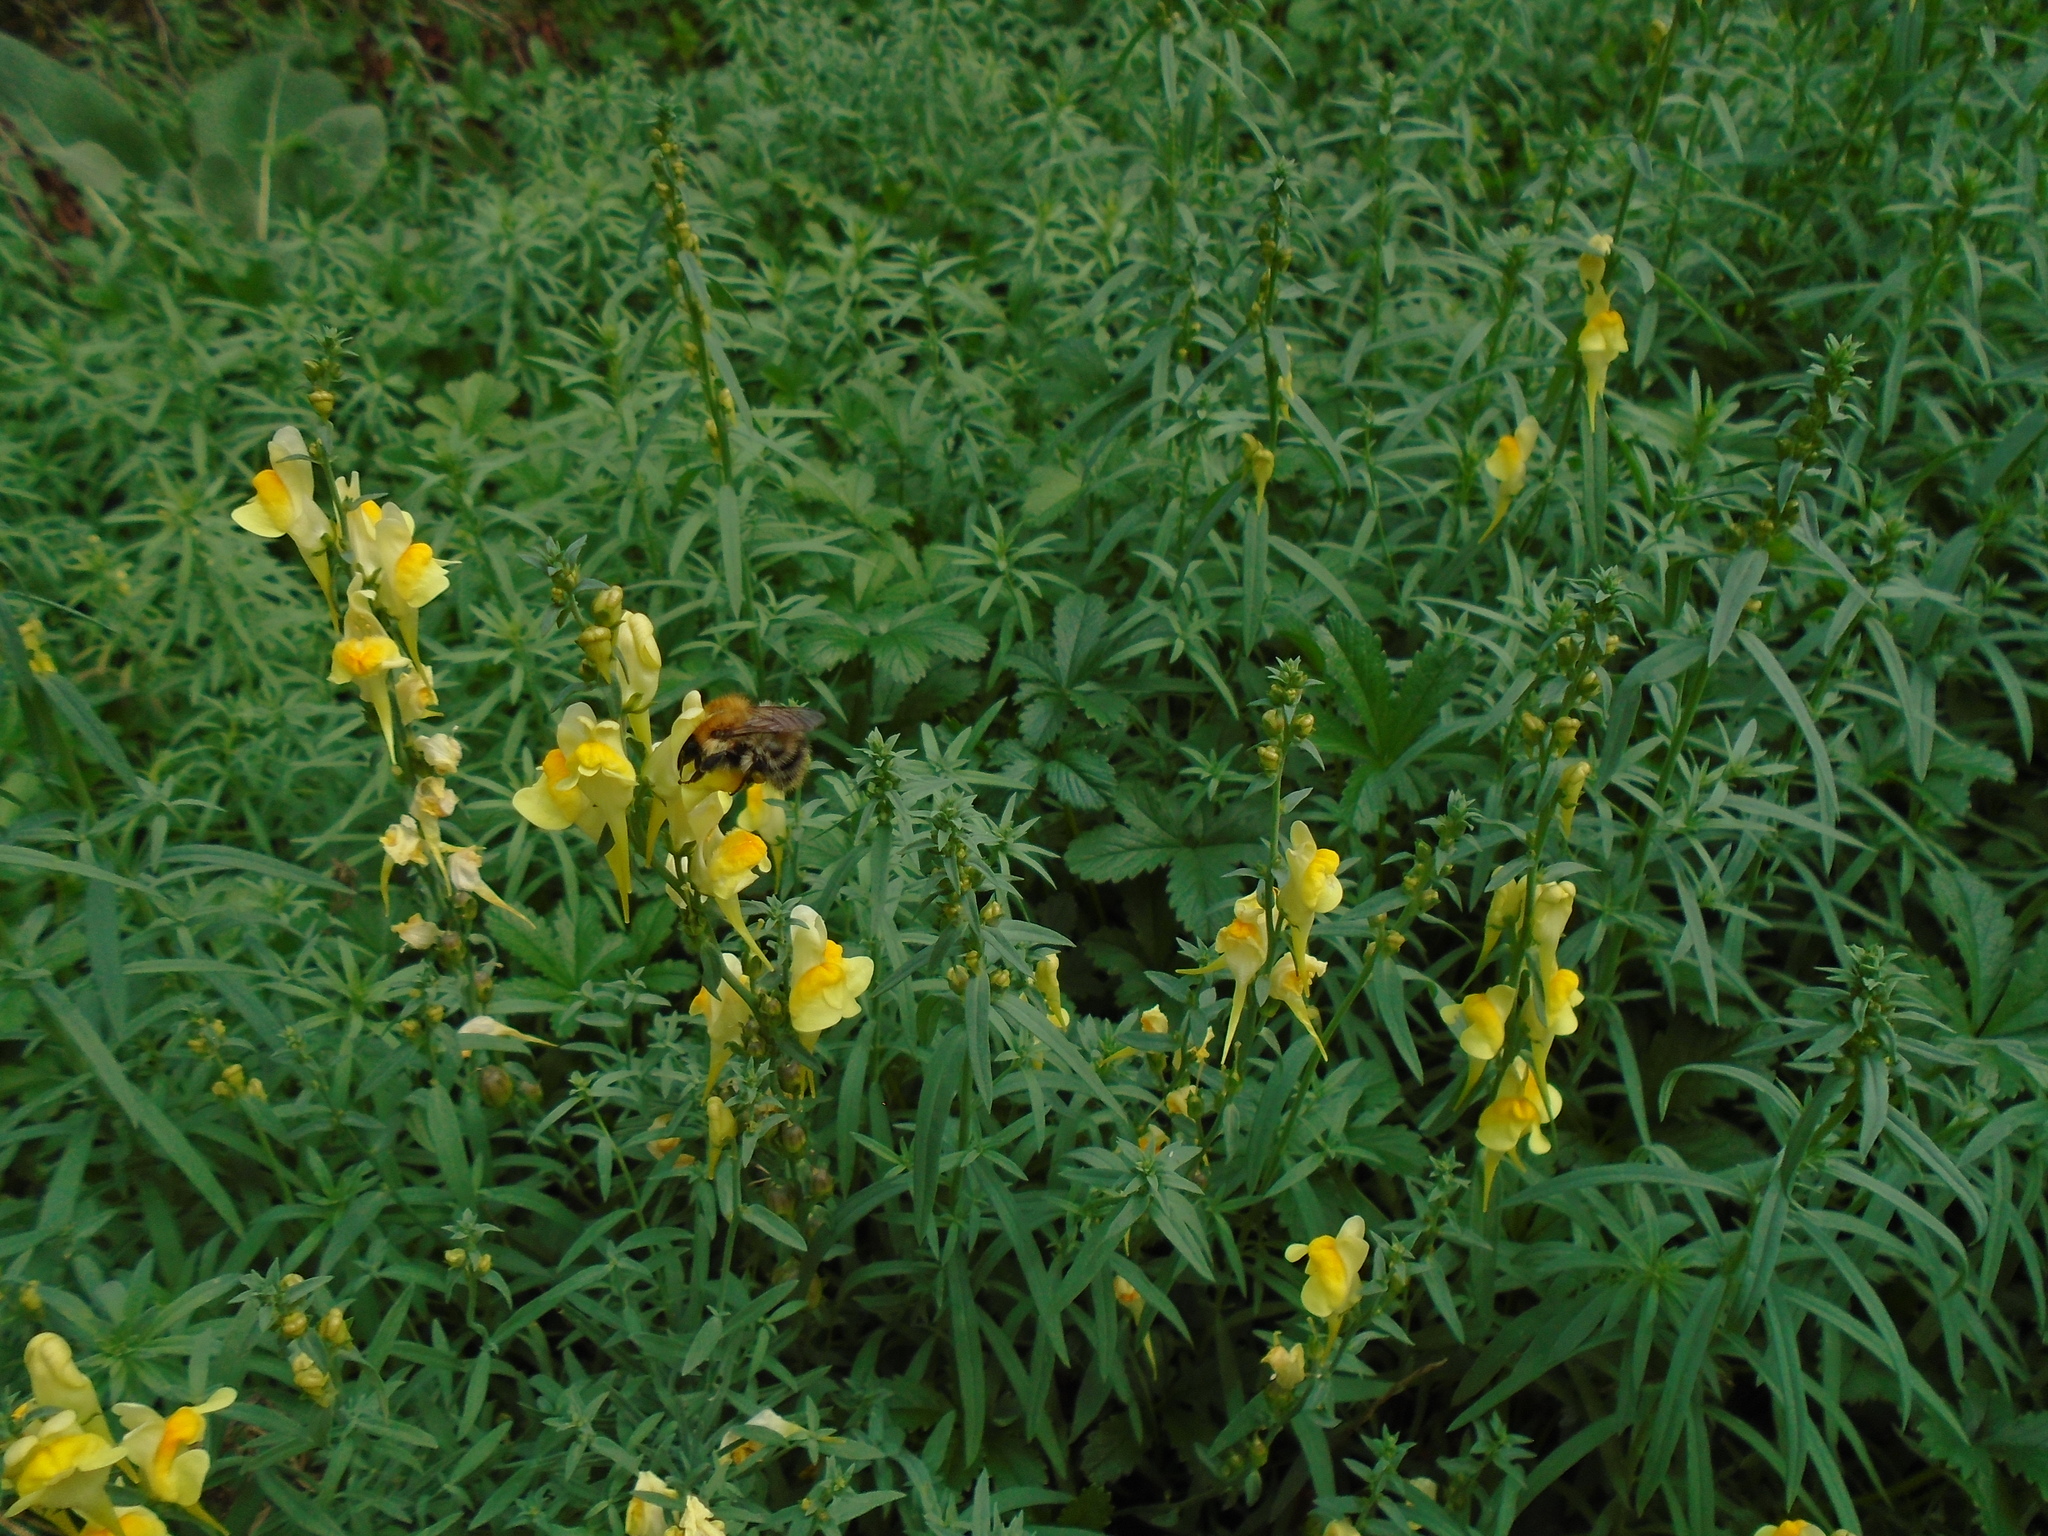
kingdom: Animalia
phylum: Arthropoda
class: Insecta
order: Hymenoptera
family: Apidae
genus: Bombus
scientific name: Bombus pascuorum
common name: Common carder bee
